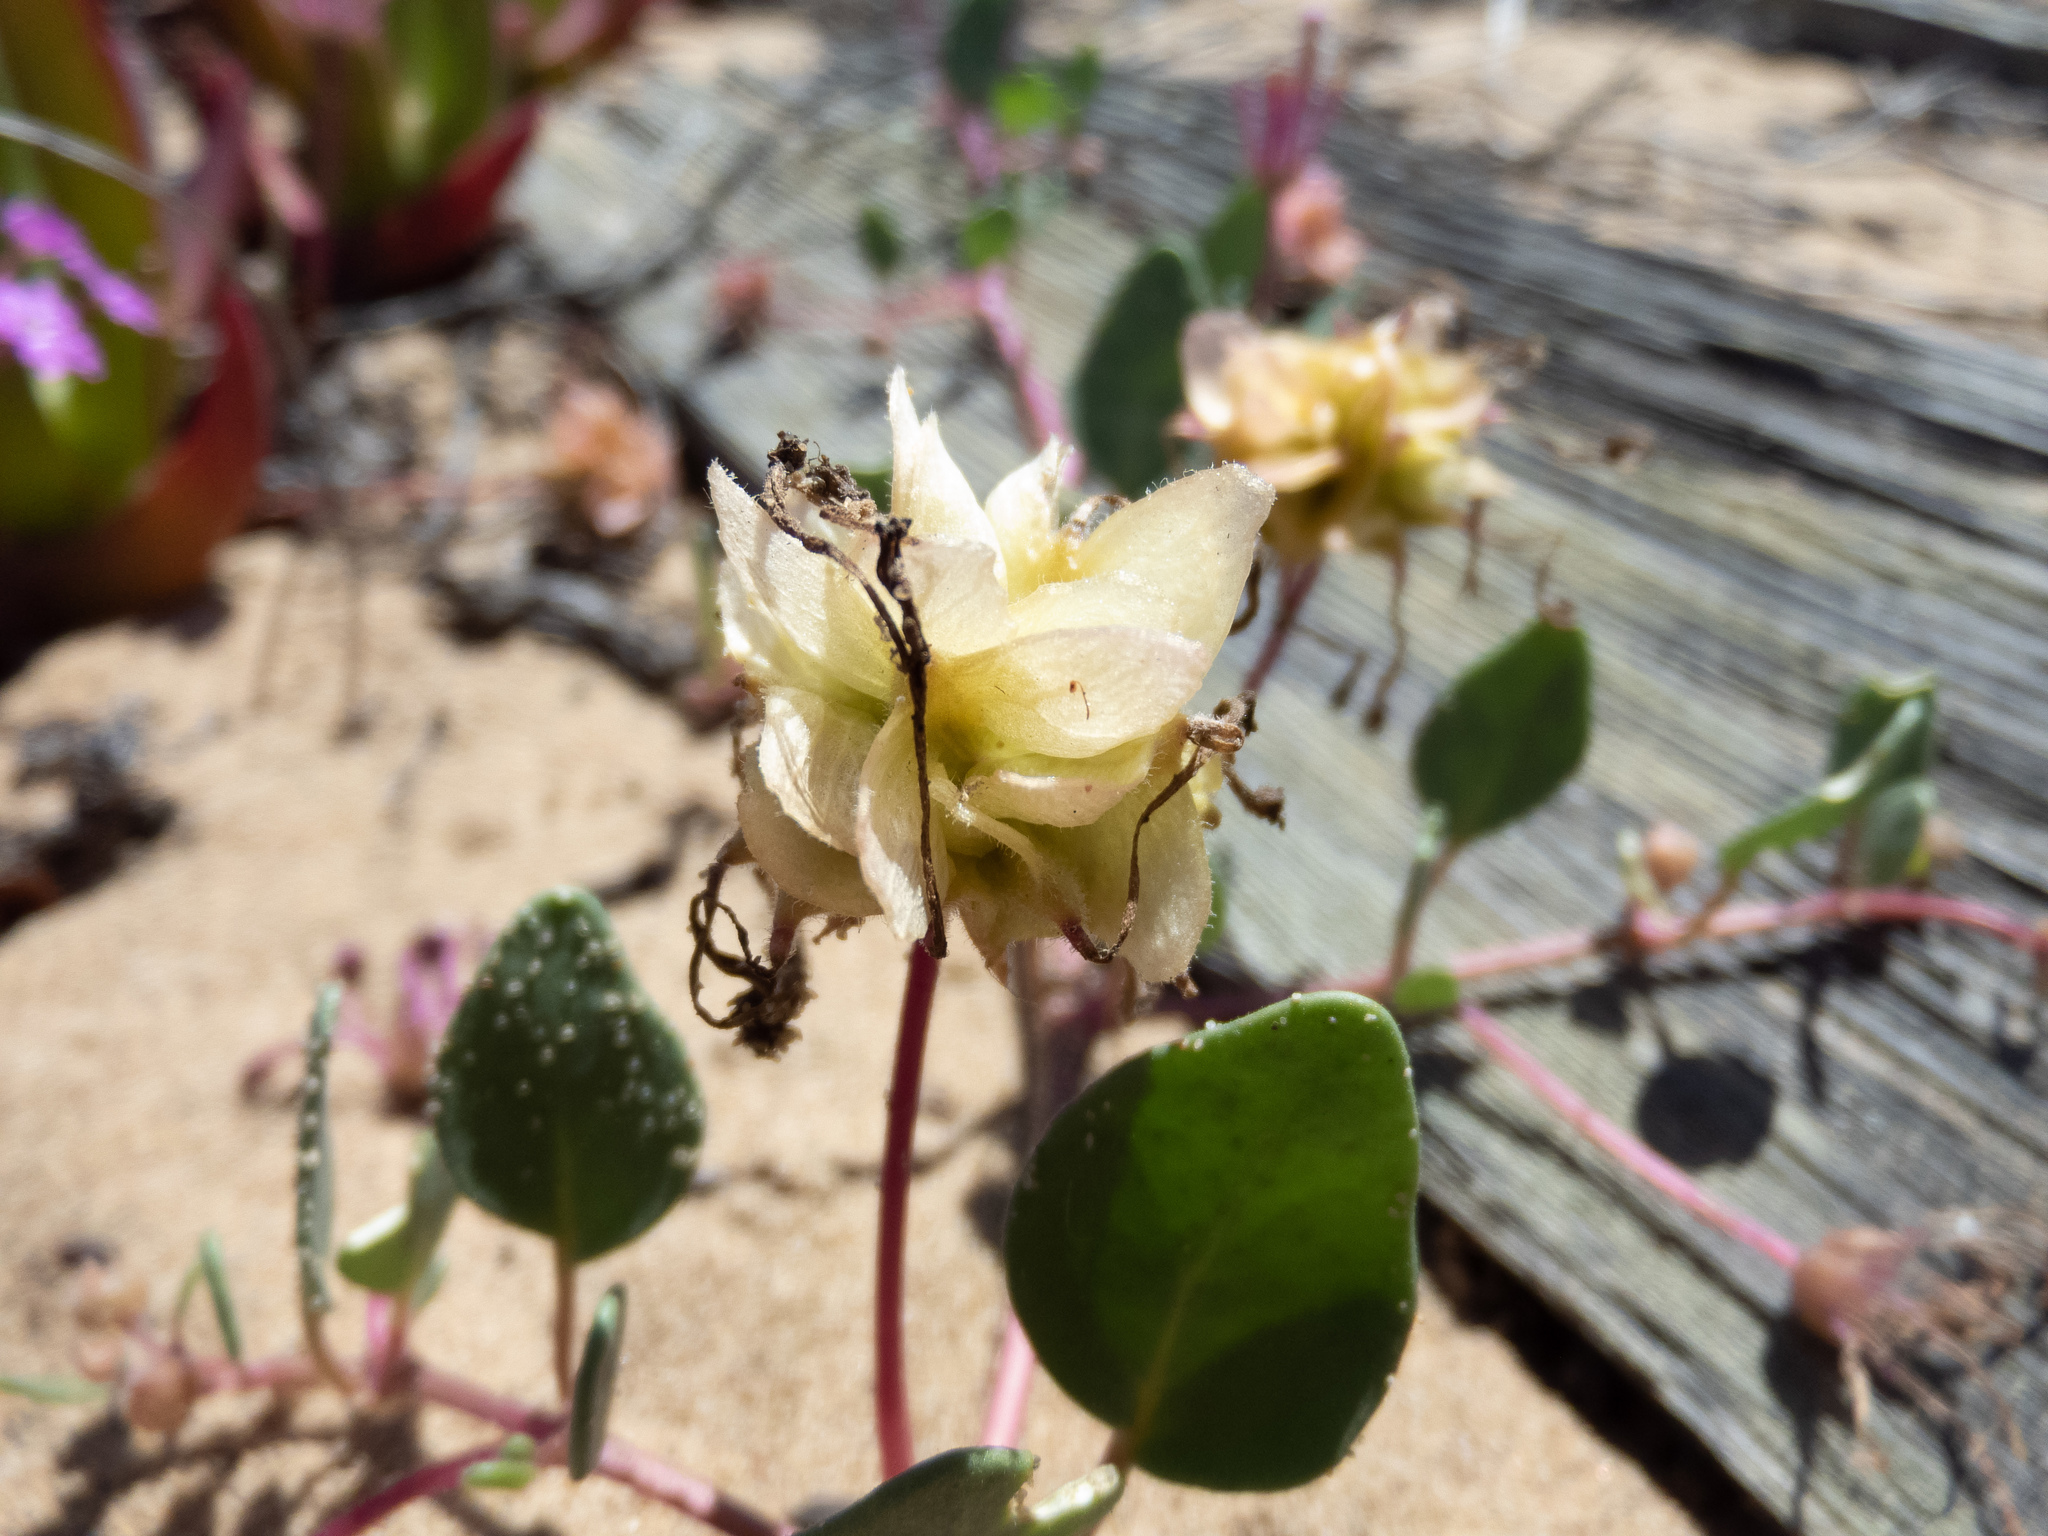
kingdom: Plantae
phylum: Tracheophyta
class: Magnoliopsida
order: Caryophyllales
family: Nyctaginaceae
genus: Abronia
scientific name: Abronia umbellata
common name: Sand-verbena
